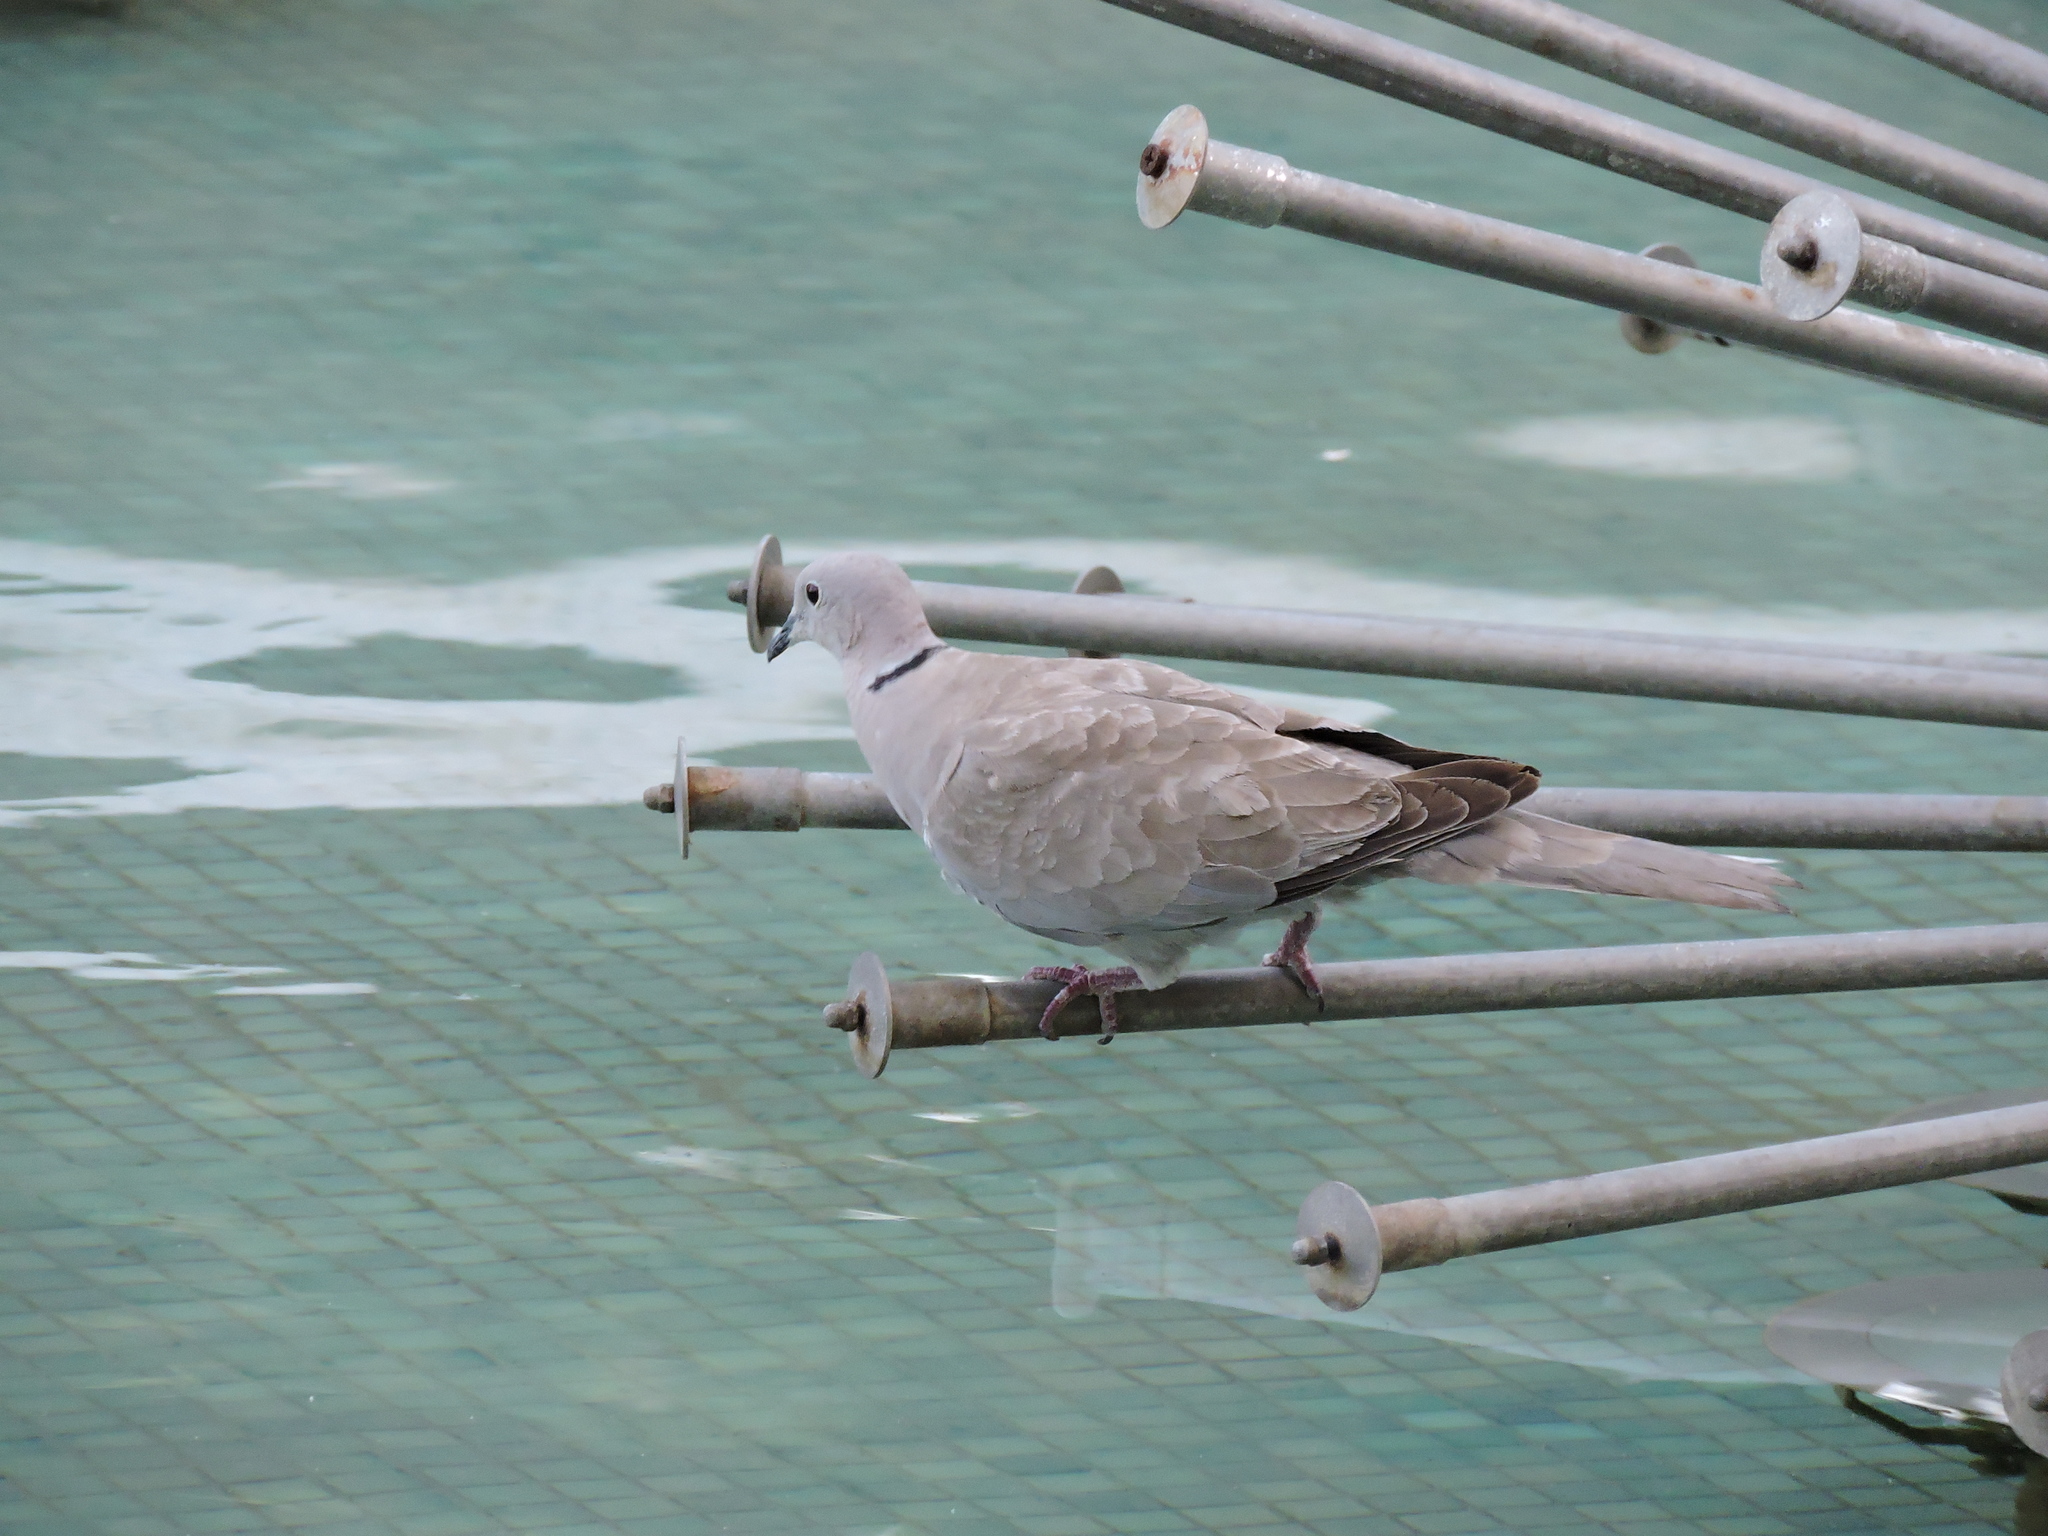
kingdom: Animalia
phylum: Chordata
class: Aves
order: Columbiformes
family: Columbidae
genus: Streptopelia
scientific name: Streptopelia decaocto
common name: Eurasian collared dove
